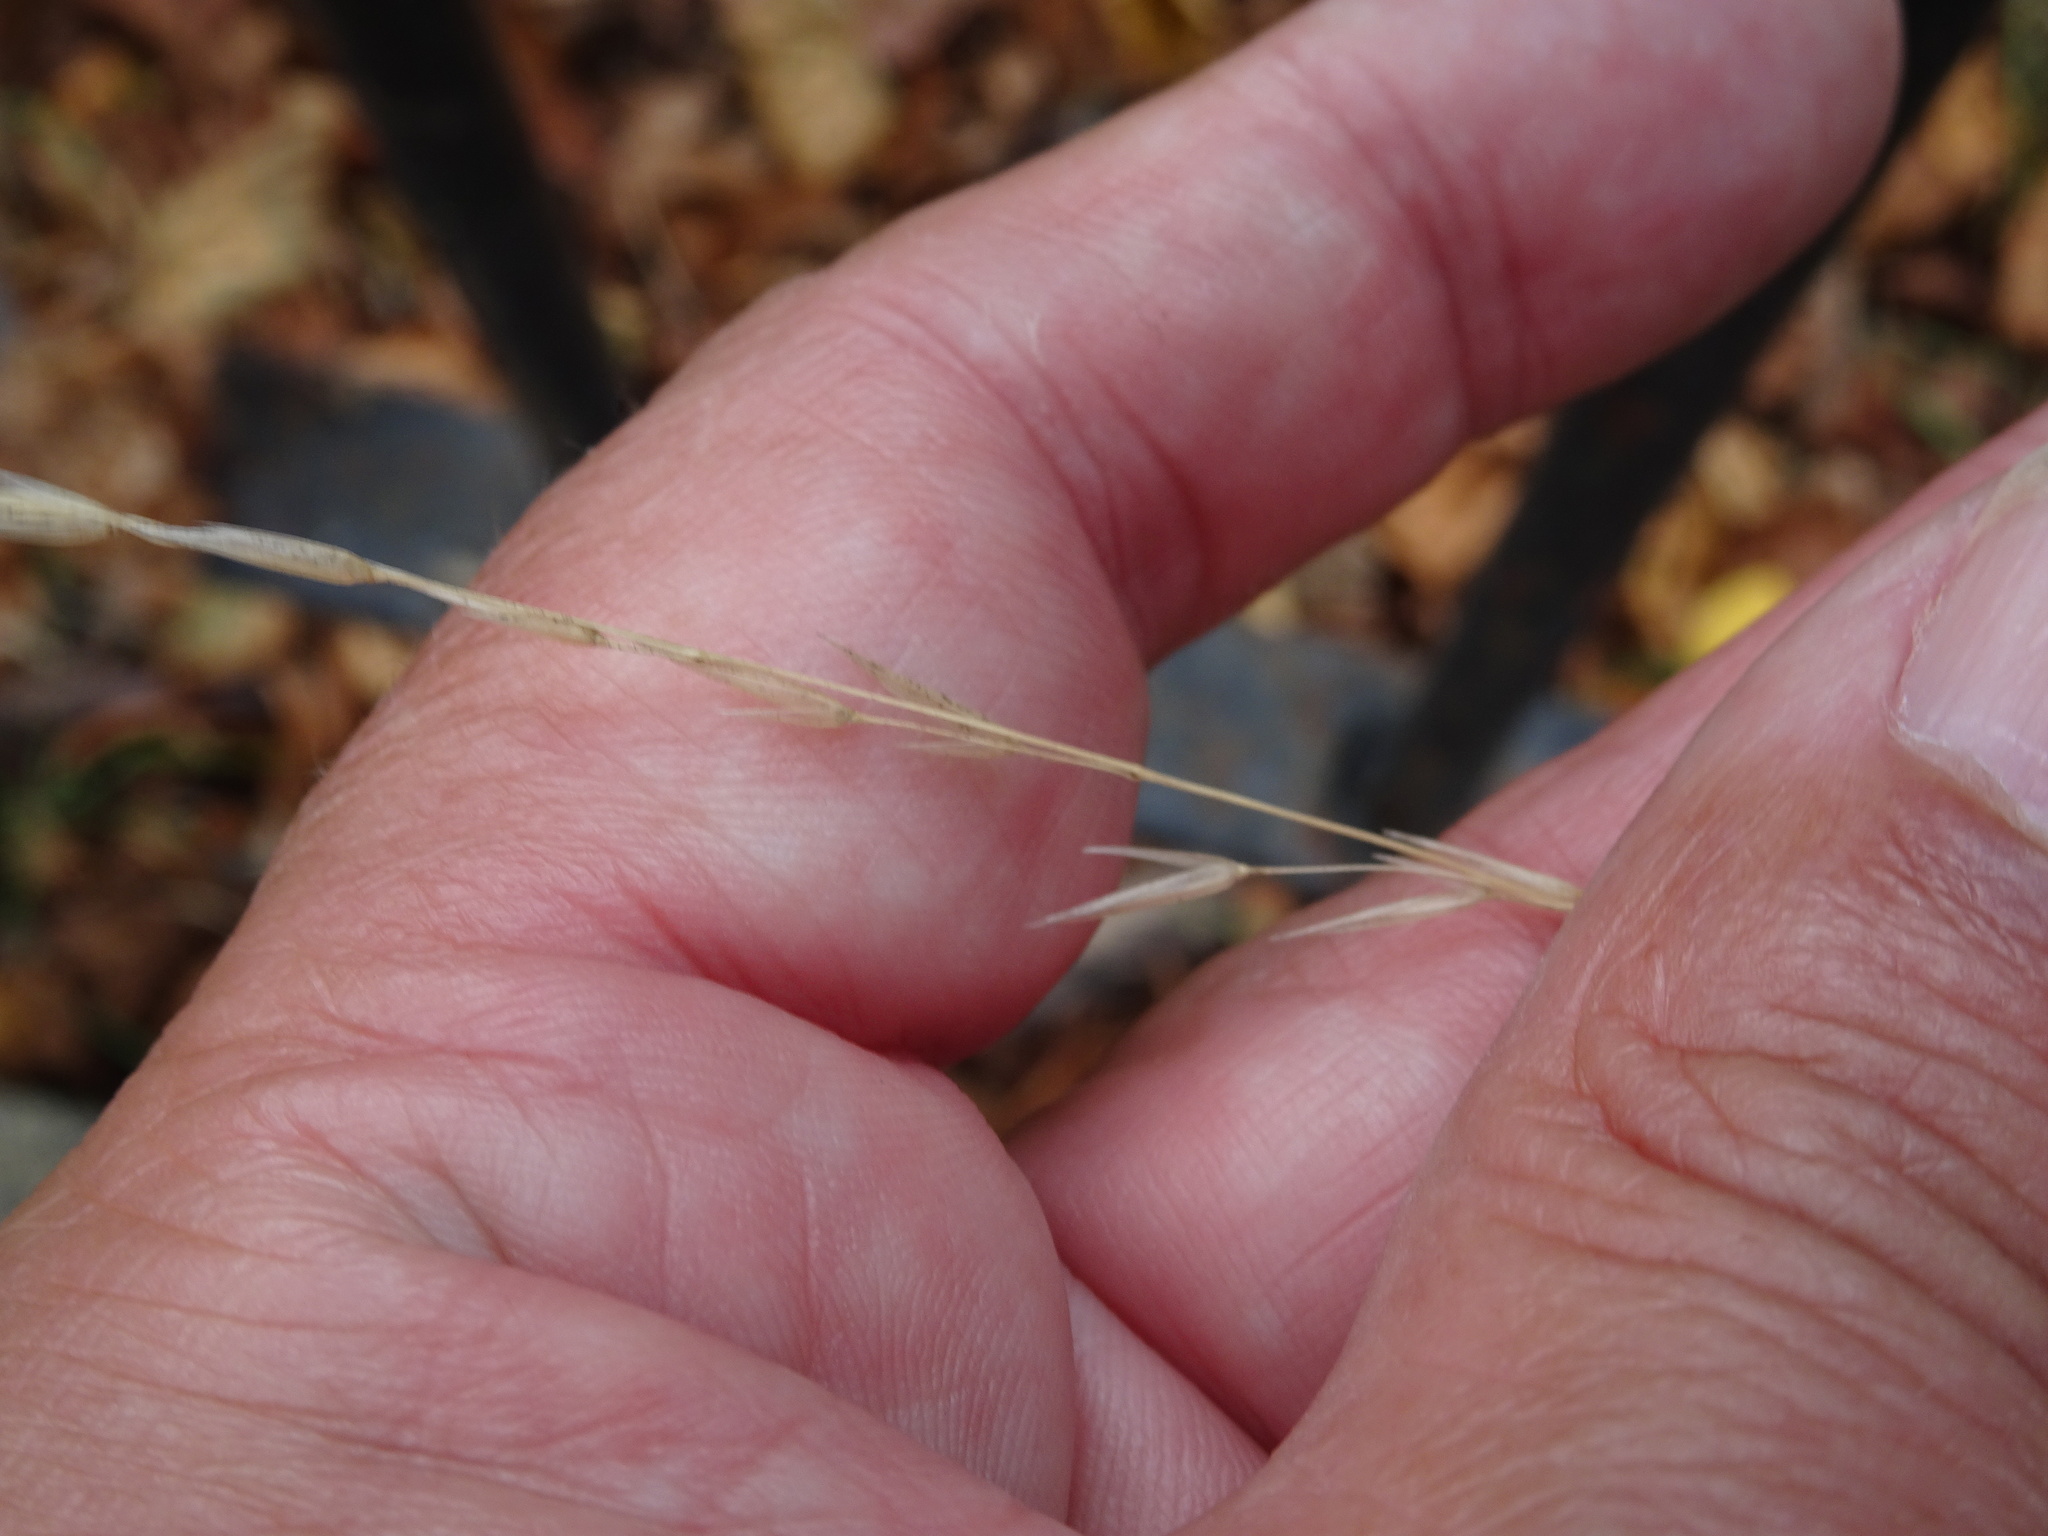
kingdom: Plantae
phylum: Tracheophyta
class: Liliopsida
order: Poales
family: Poaceae
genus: Arrhenatherum
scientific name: Arrhenatherum elatius
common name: Tall oatgrass
